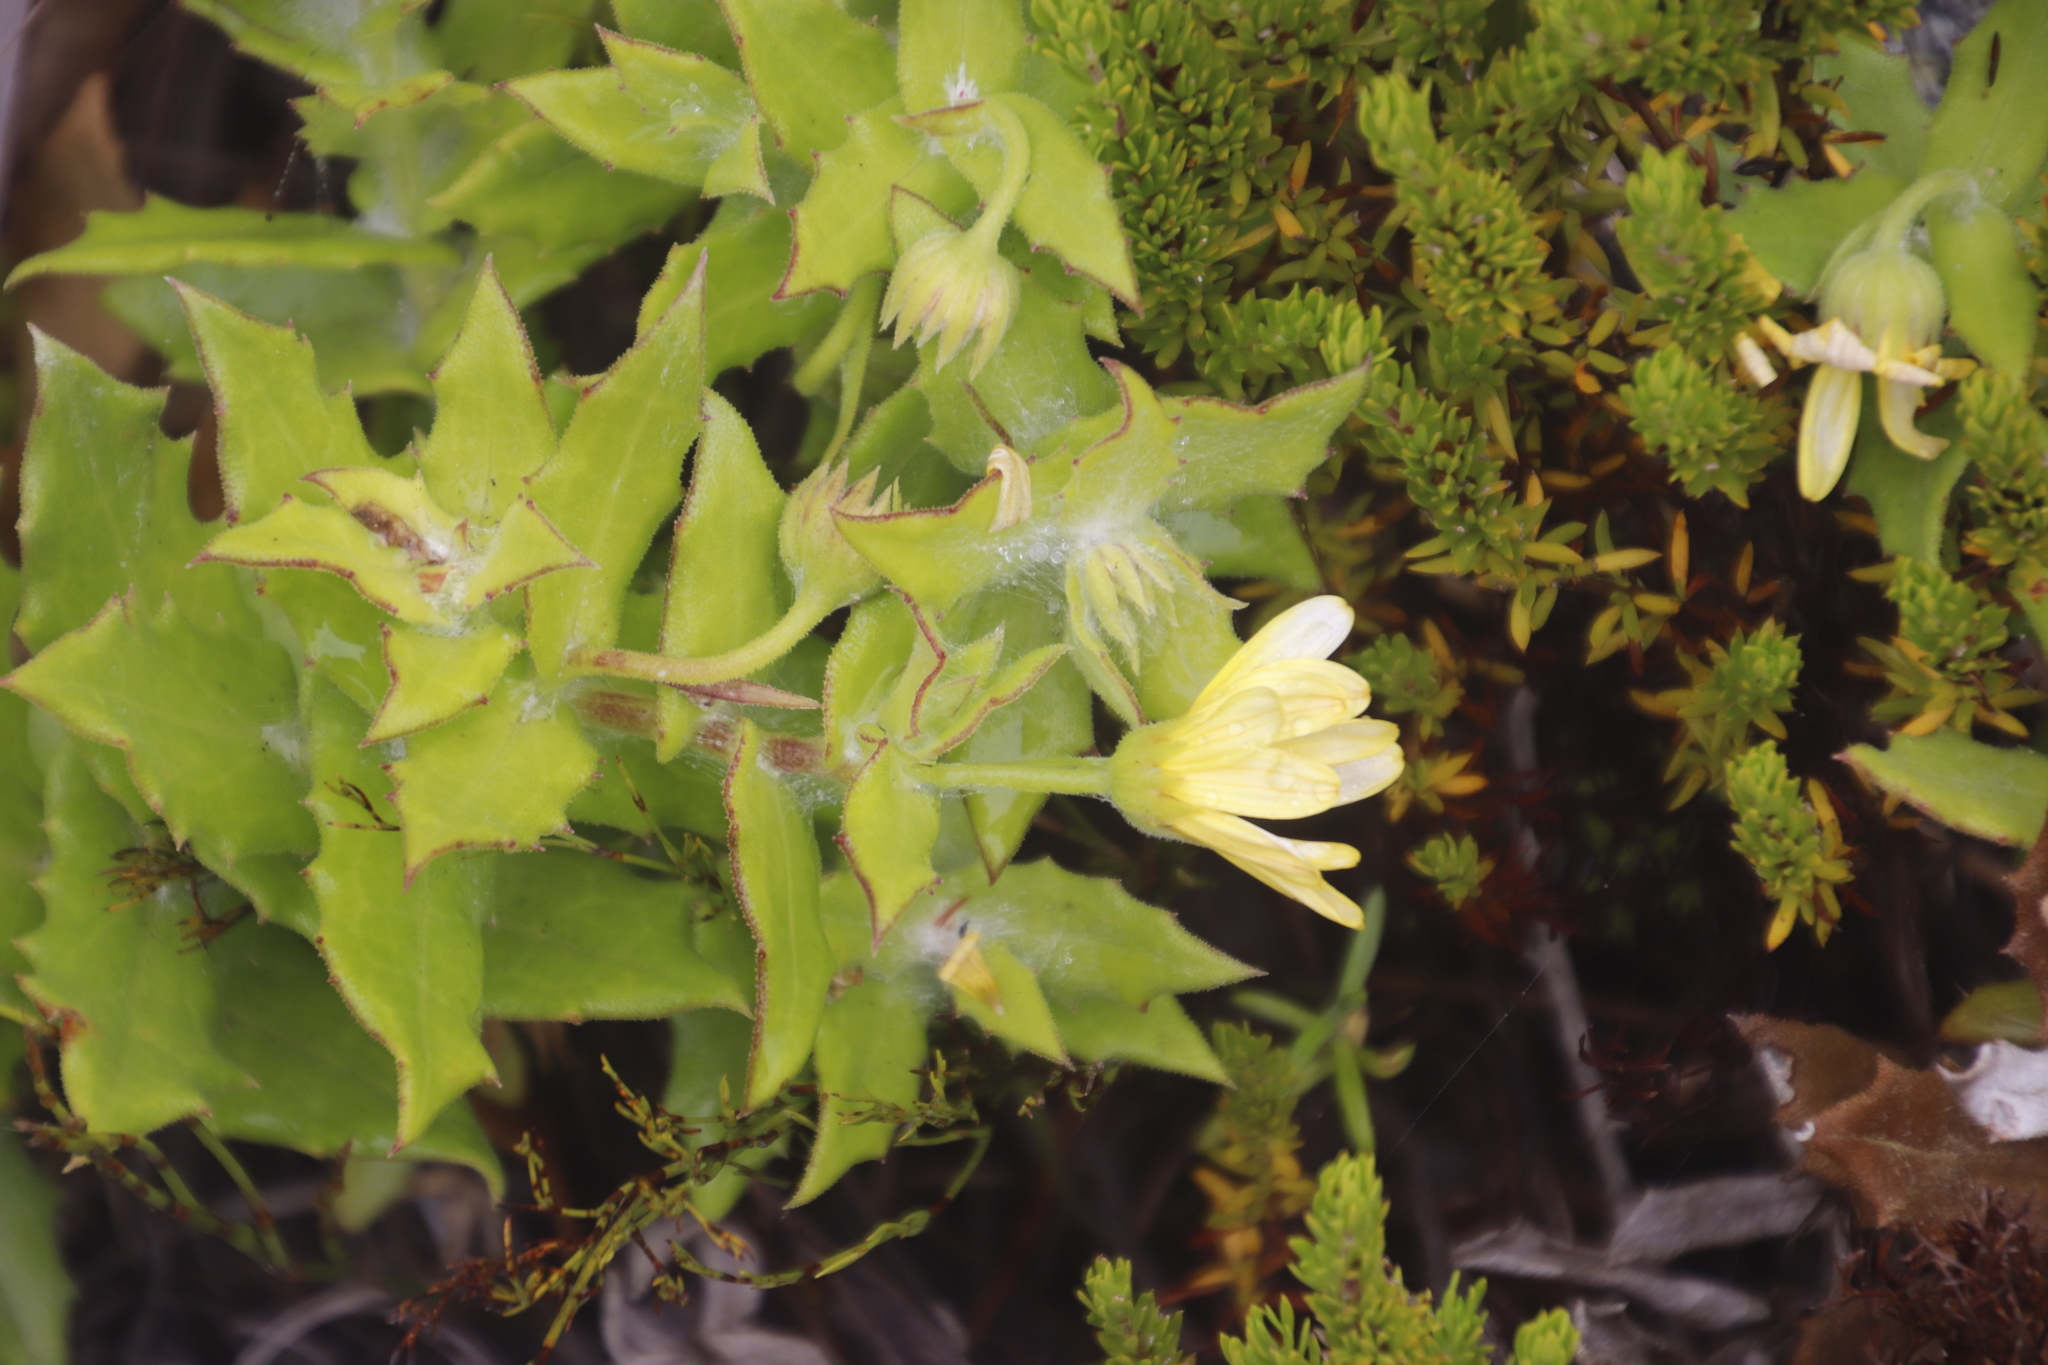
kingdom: Plantae
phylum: Tracheophyta
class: Magnoliopsida
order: Asterales
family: Asteraceae
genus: Osteospermum
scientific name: Osteospermum ilicifolium
